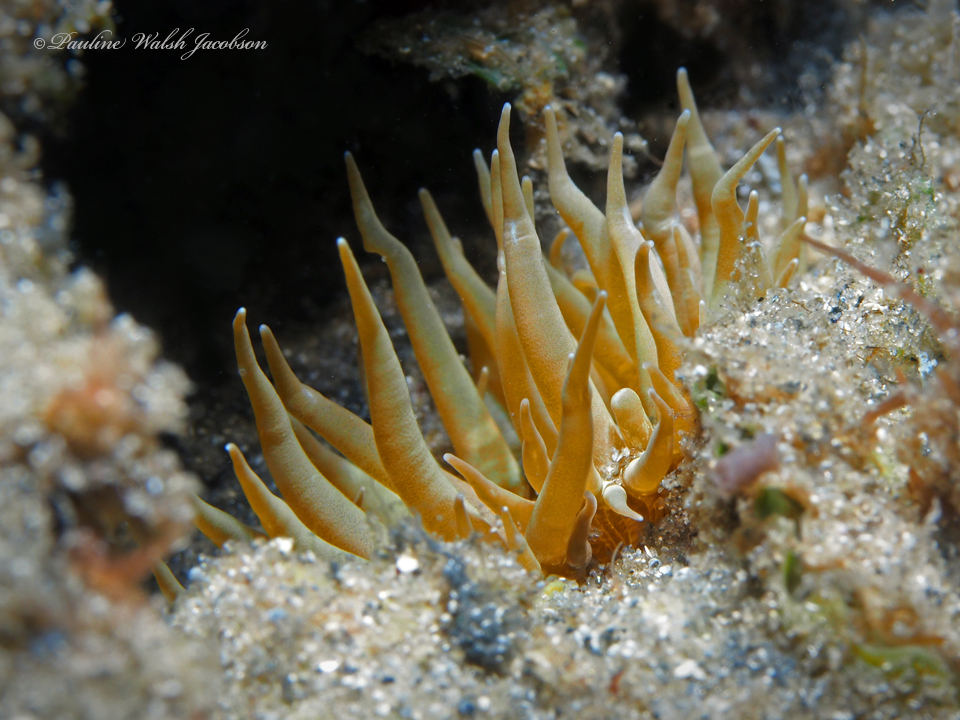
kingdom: Animalia
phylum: Cnidaria
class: Anthozoa
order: Actiniaria
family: Aiptasiidae
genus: Exaiptasia
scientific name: Exaiptasia diaphana
